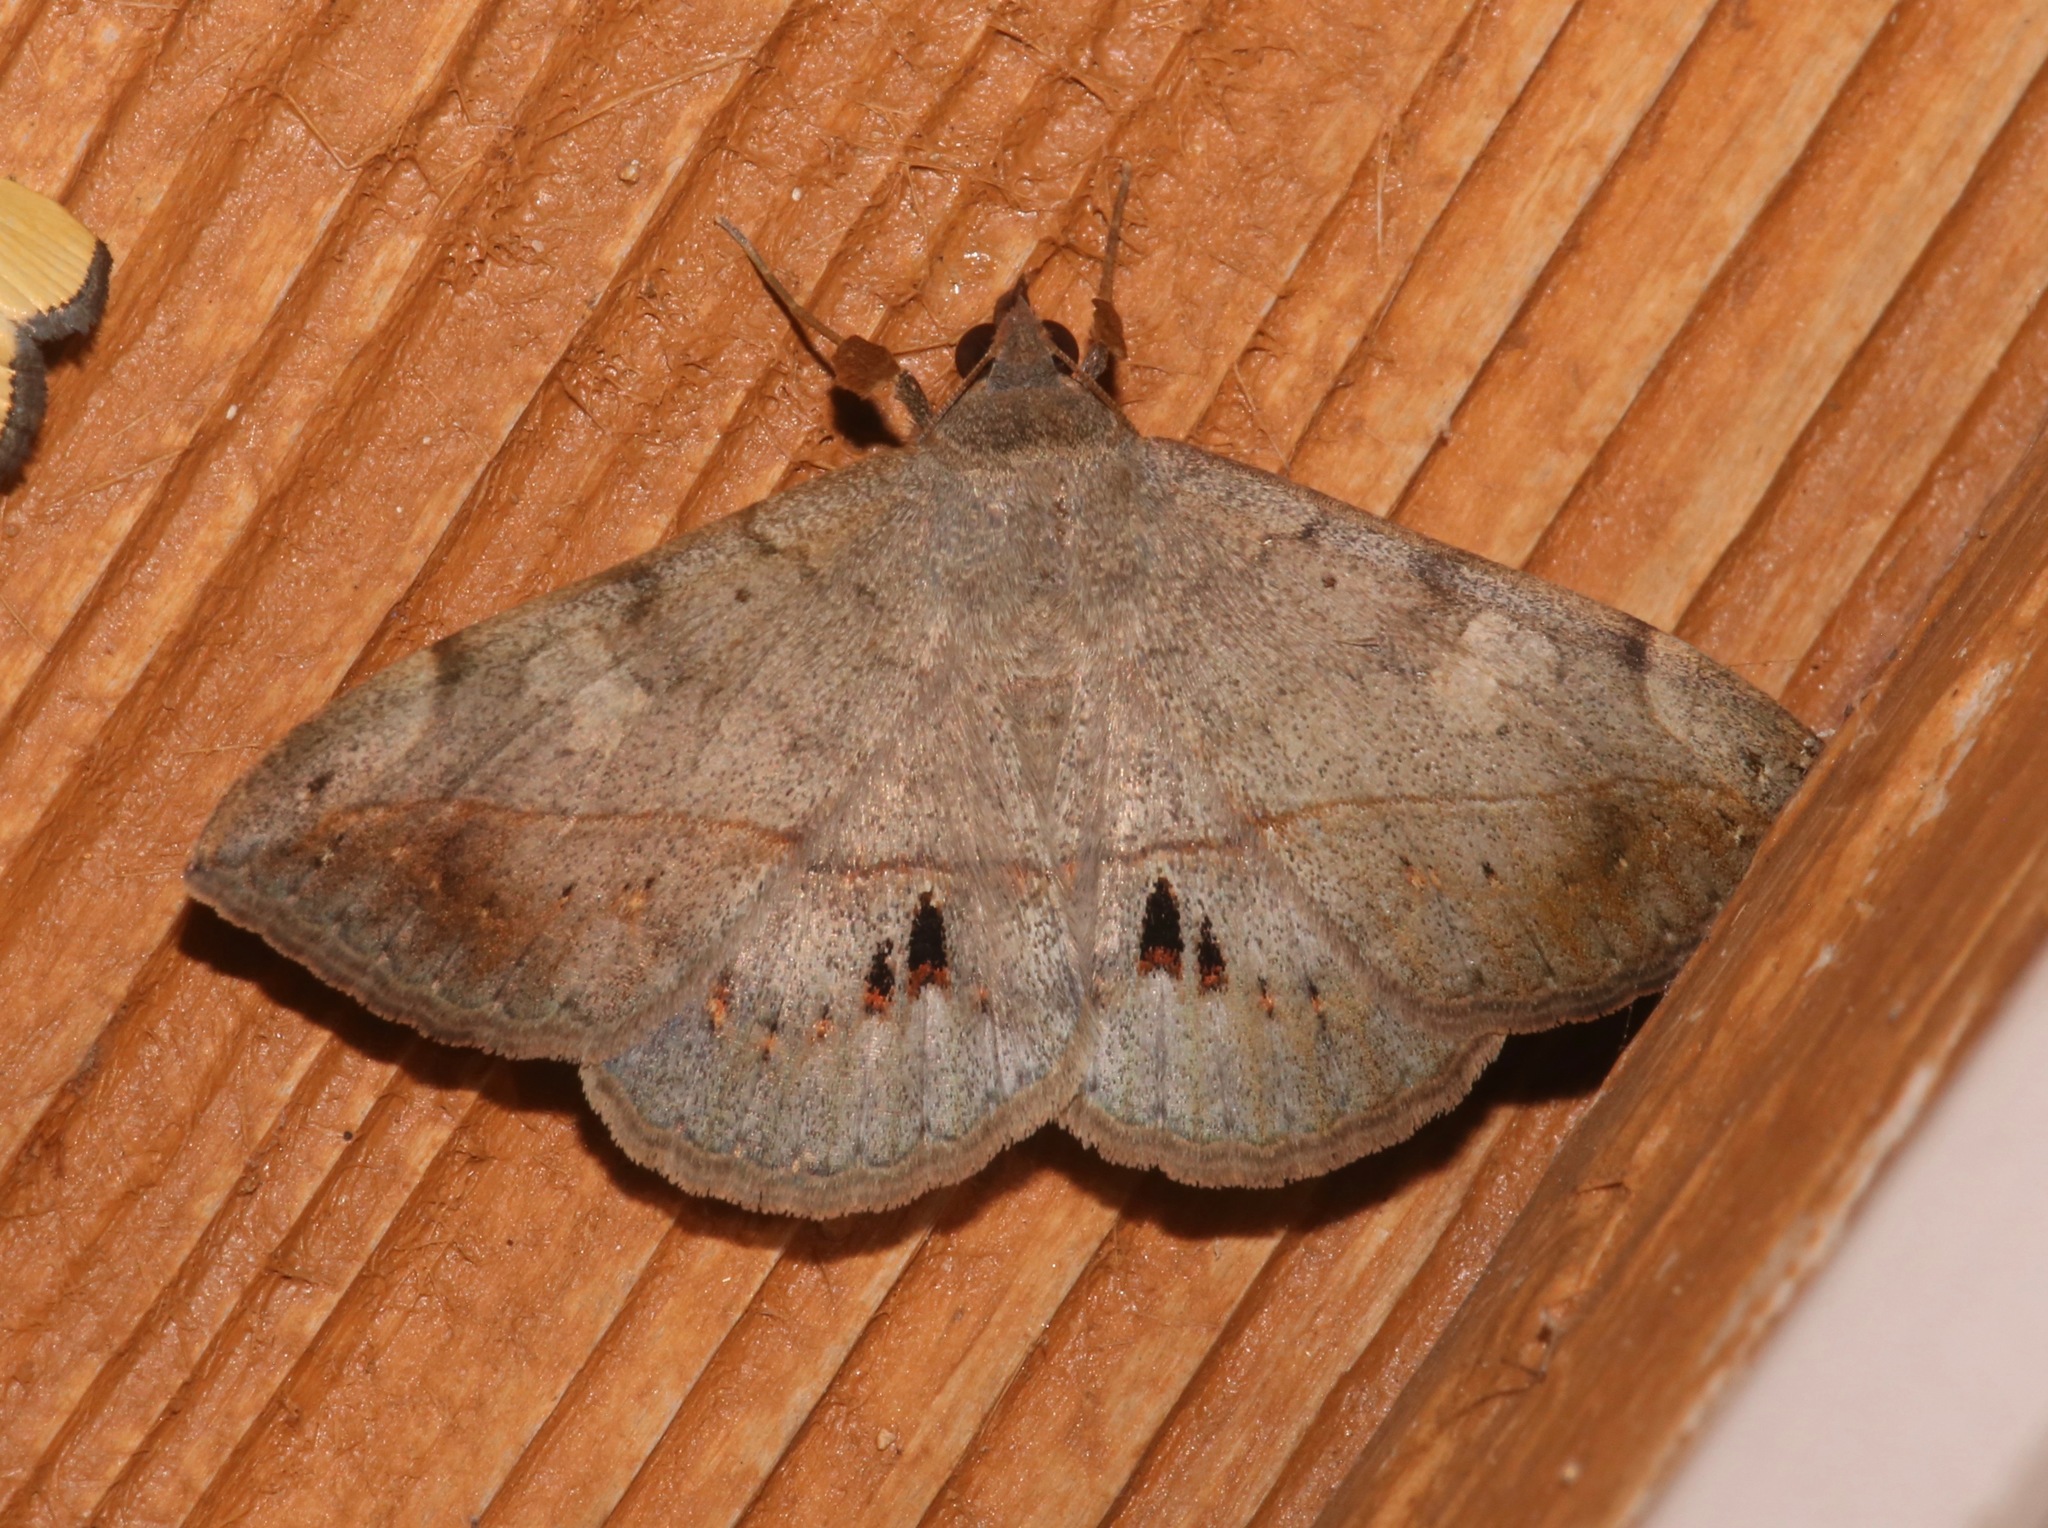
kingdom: Animalia
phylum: Arthropoda
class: Insecta
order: Lepidoptera
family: Erebidae
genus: Anticarsia
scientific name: Anticarsia gemmatalis
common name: Cutworm moth
